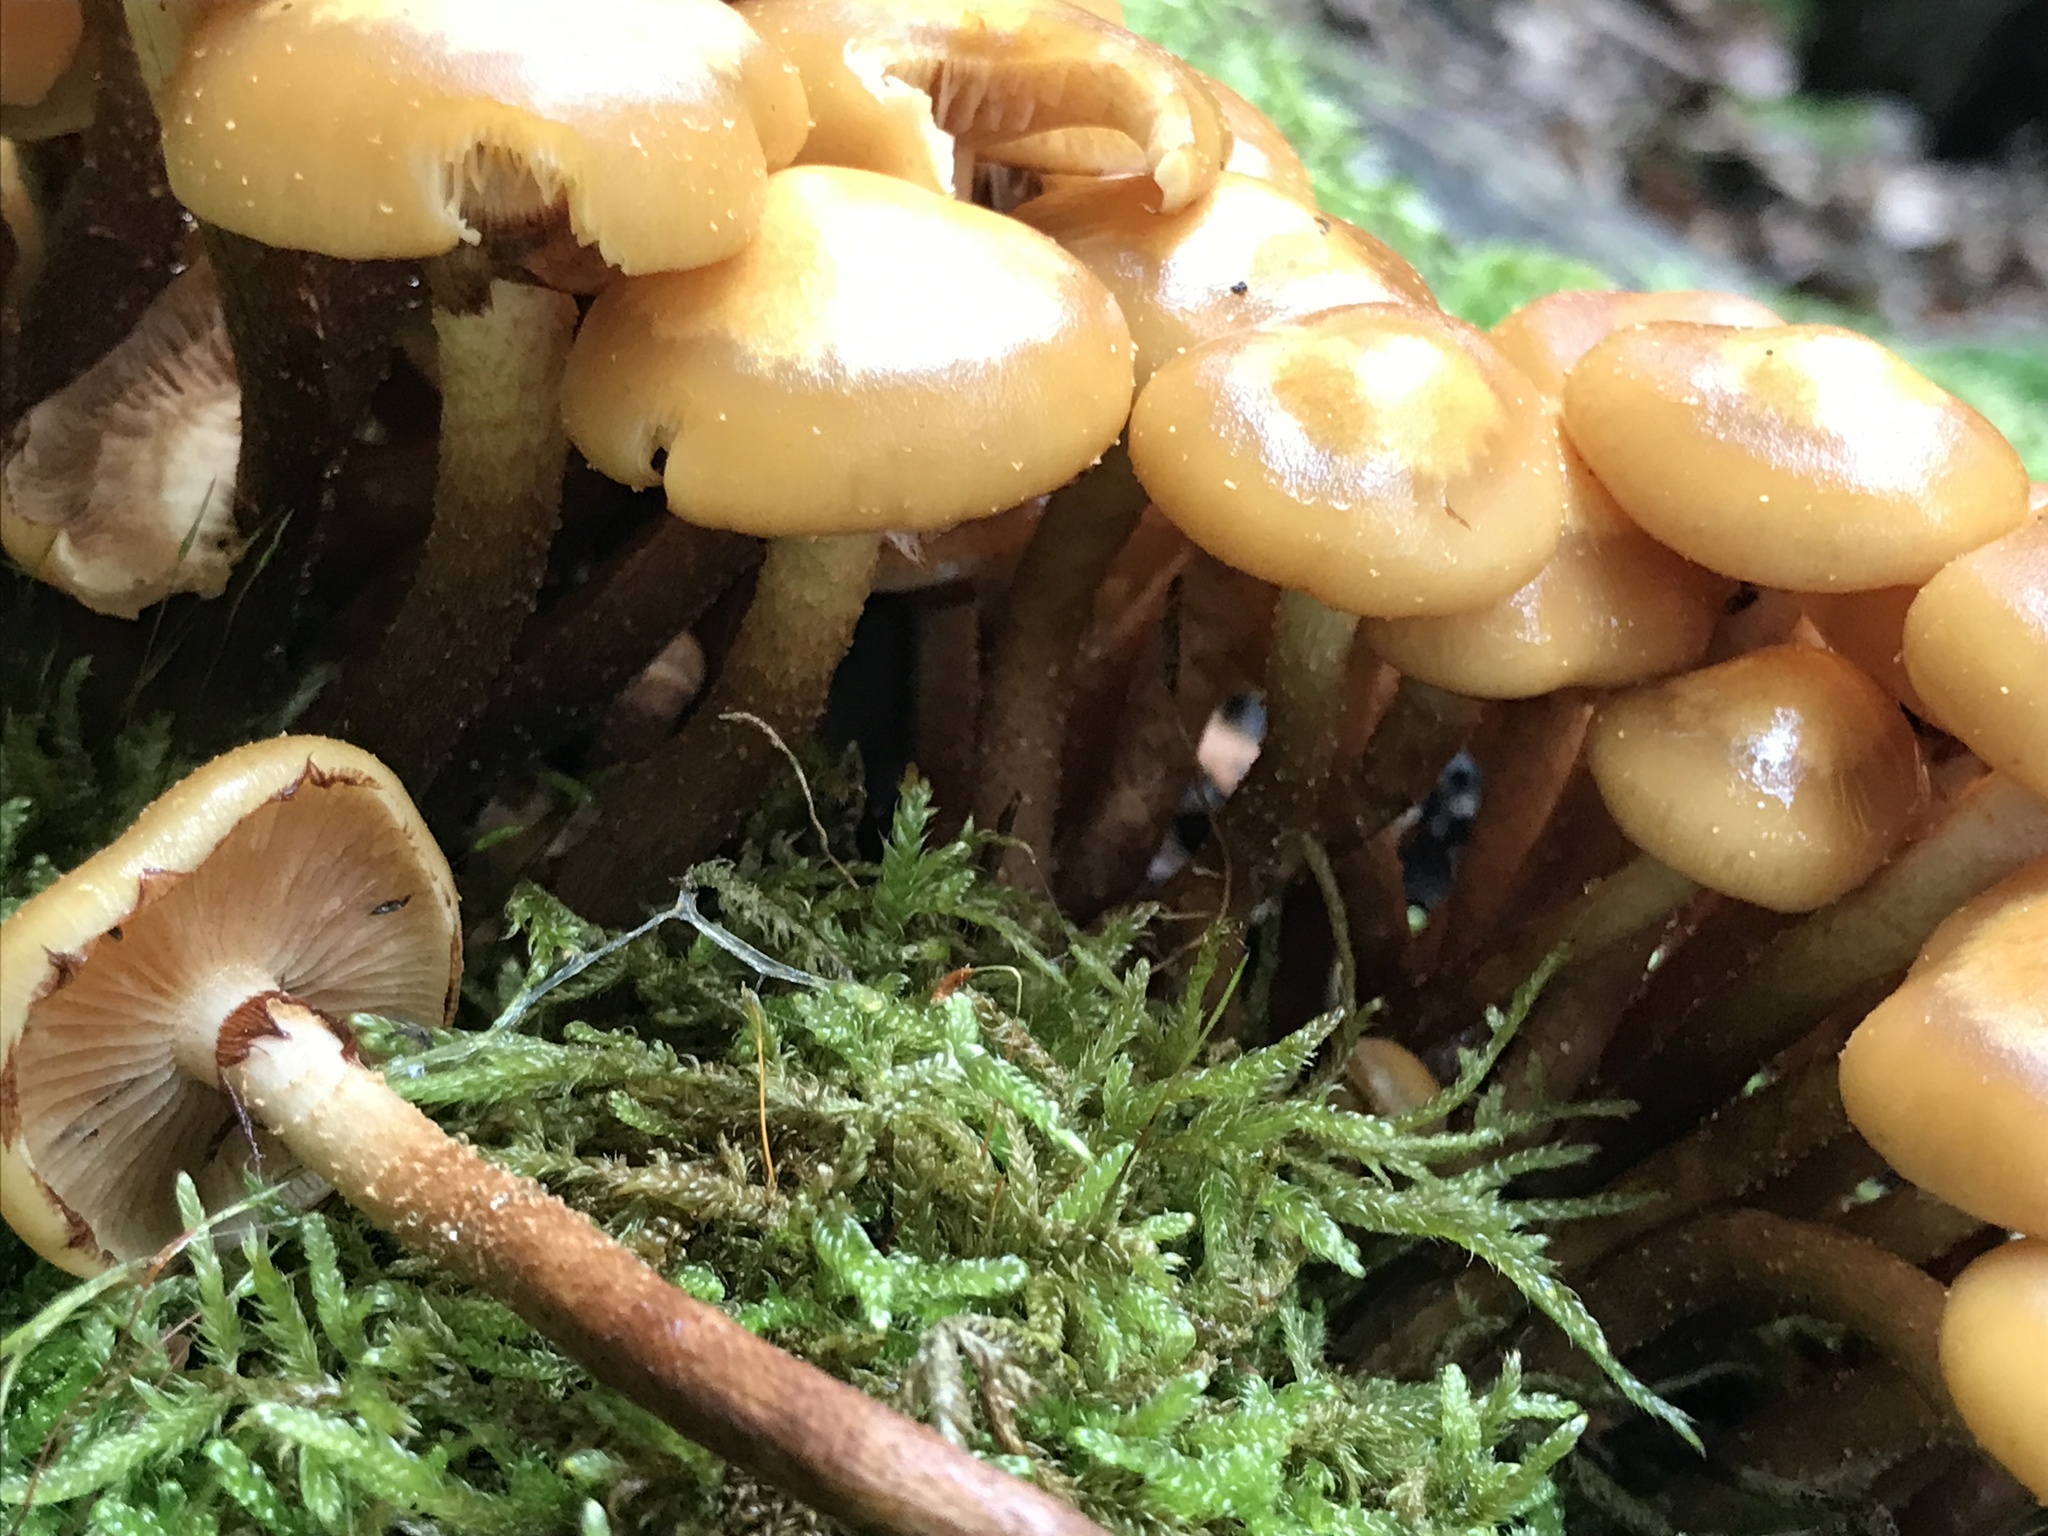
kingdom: Fungi
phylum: Basidiomycota
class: Agaricomycetes
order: Agaricales
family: Strophariaceae
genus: Kuehneromyces
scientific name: Kuehneromyces mutabilis
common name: Sheathed woodtuft
